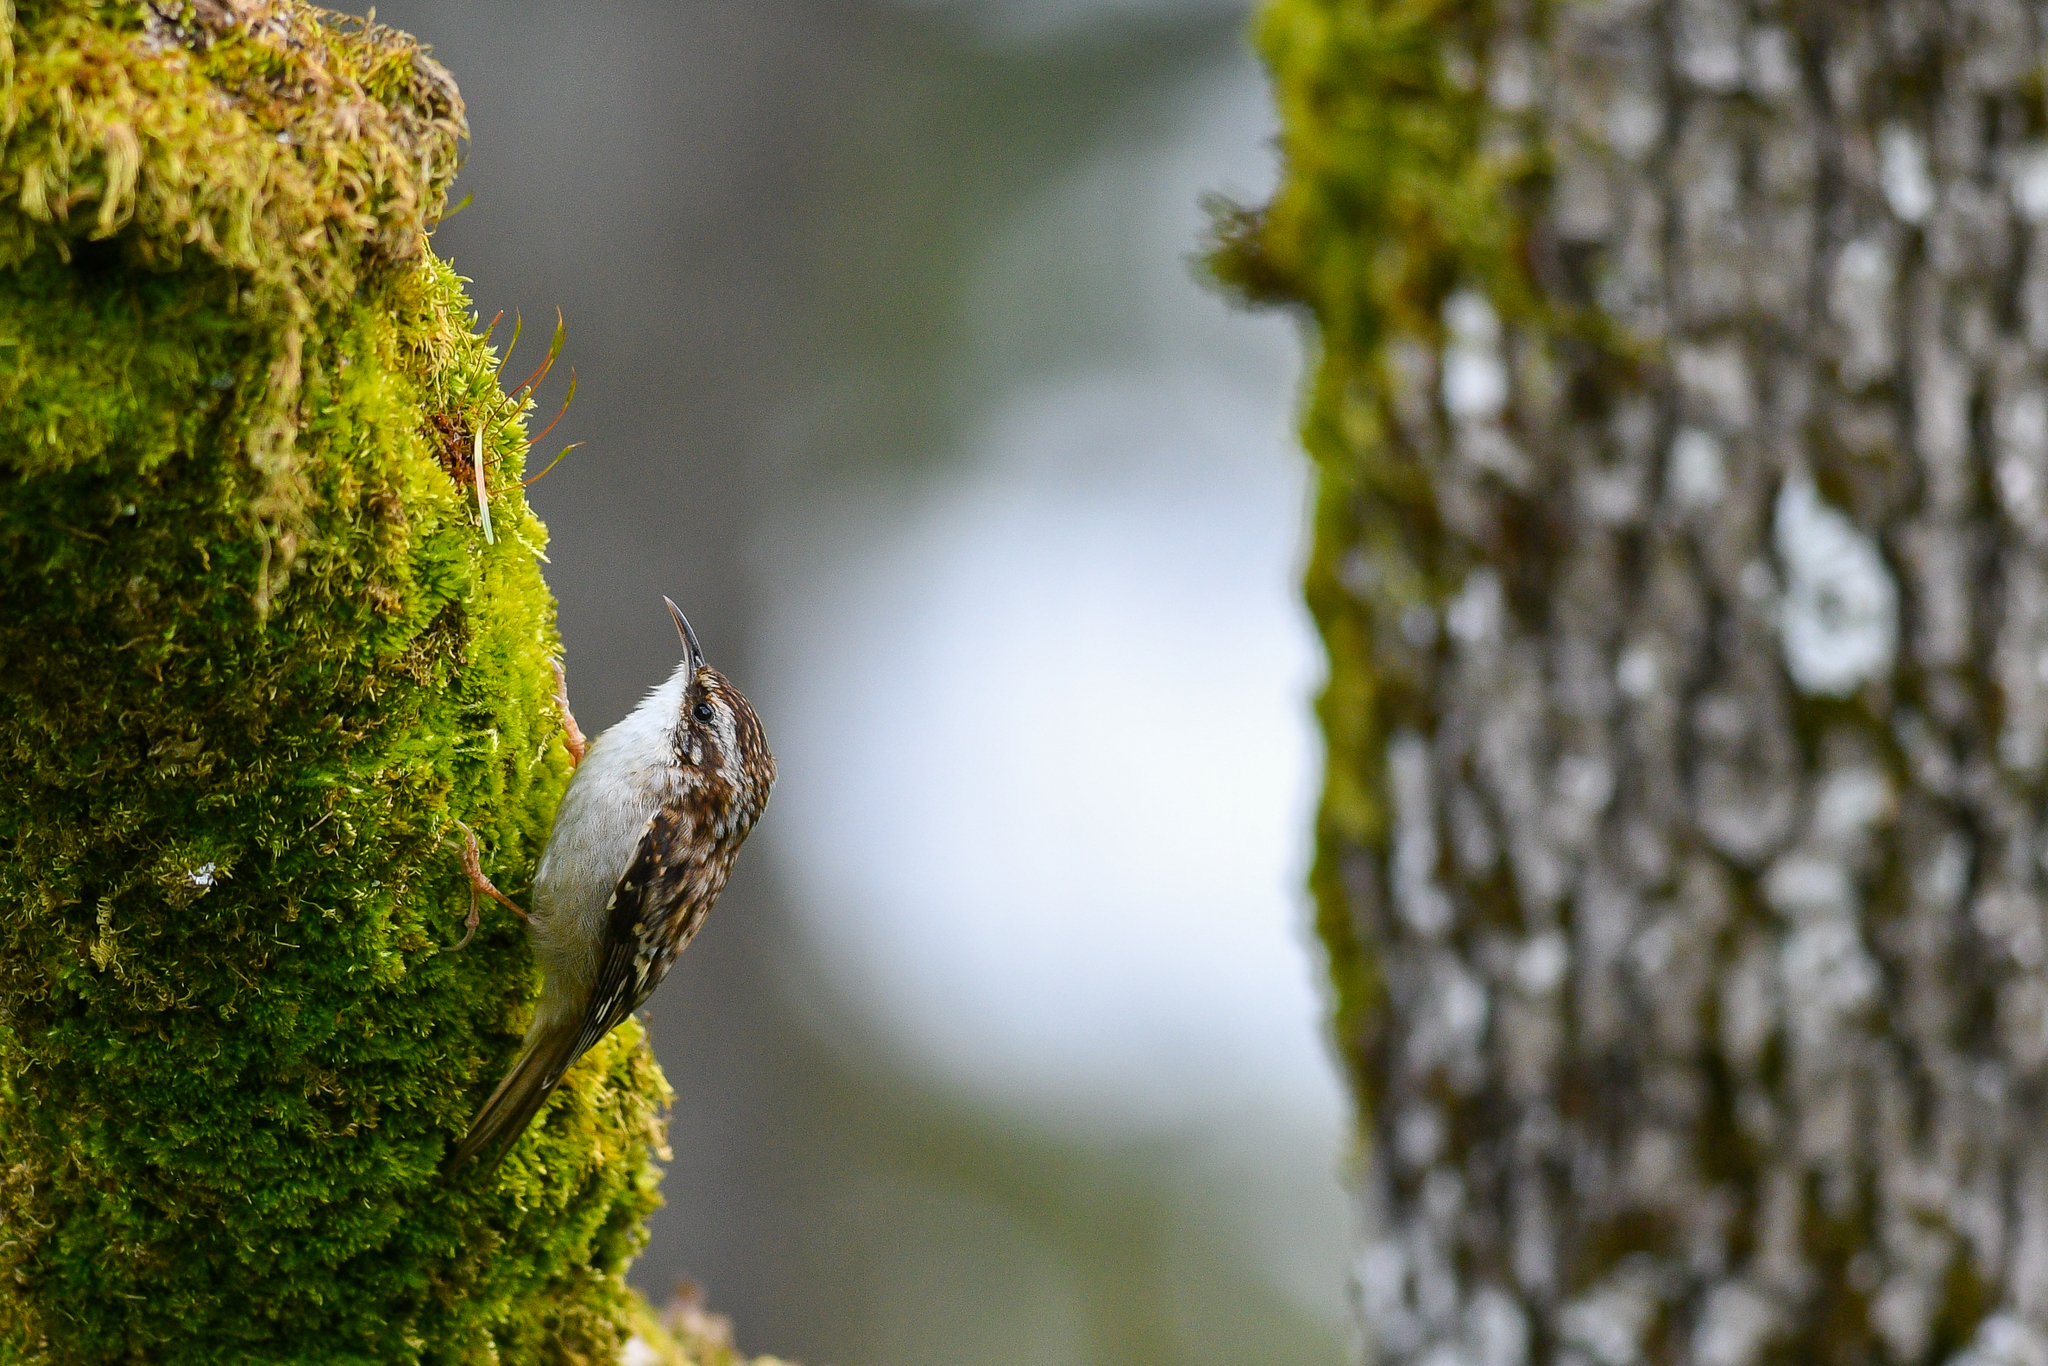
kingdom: Animalia
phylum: Chordata
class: Aves
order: Passeriformes
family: Certhiidae
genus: Certhia
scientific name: Certhia americana
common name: Brown creeper
